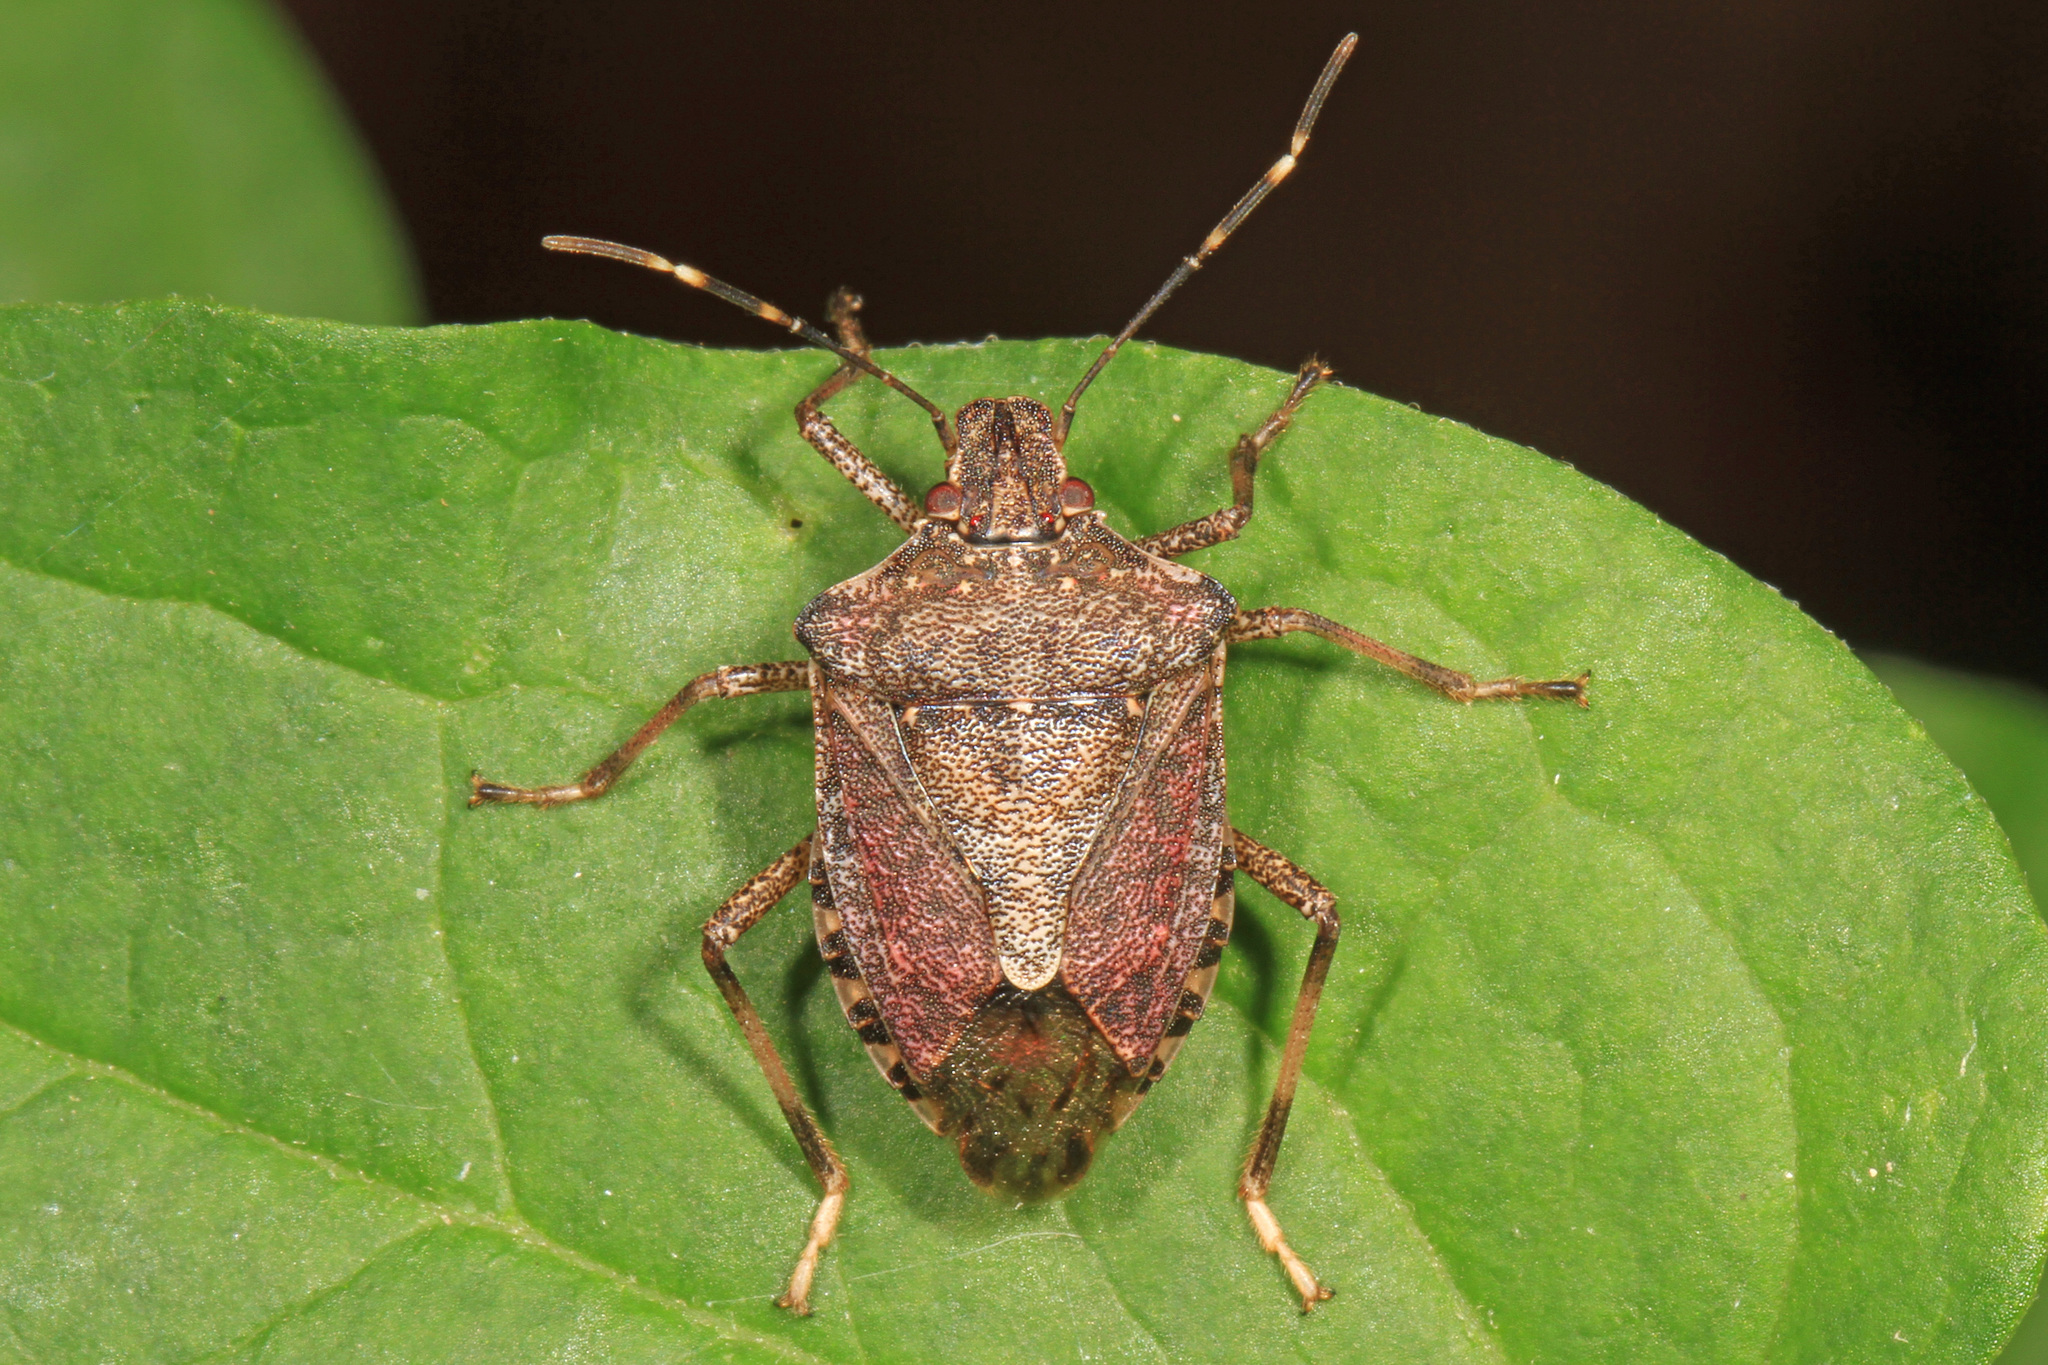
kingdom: Animalia
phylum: Arthropoda
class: Insecta
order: Hemiptera
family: Pentatomidae
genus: Halyomorpha
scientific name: Halyomorpha halys
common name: Brown marmorated stink bug
